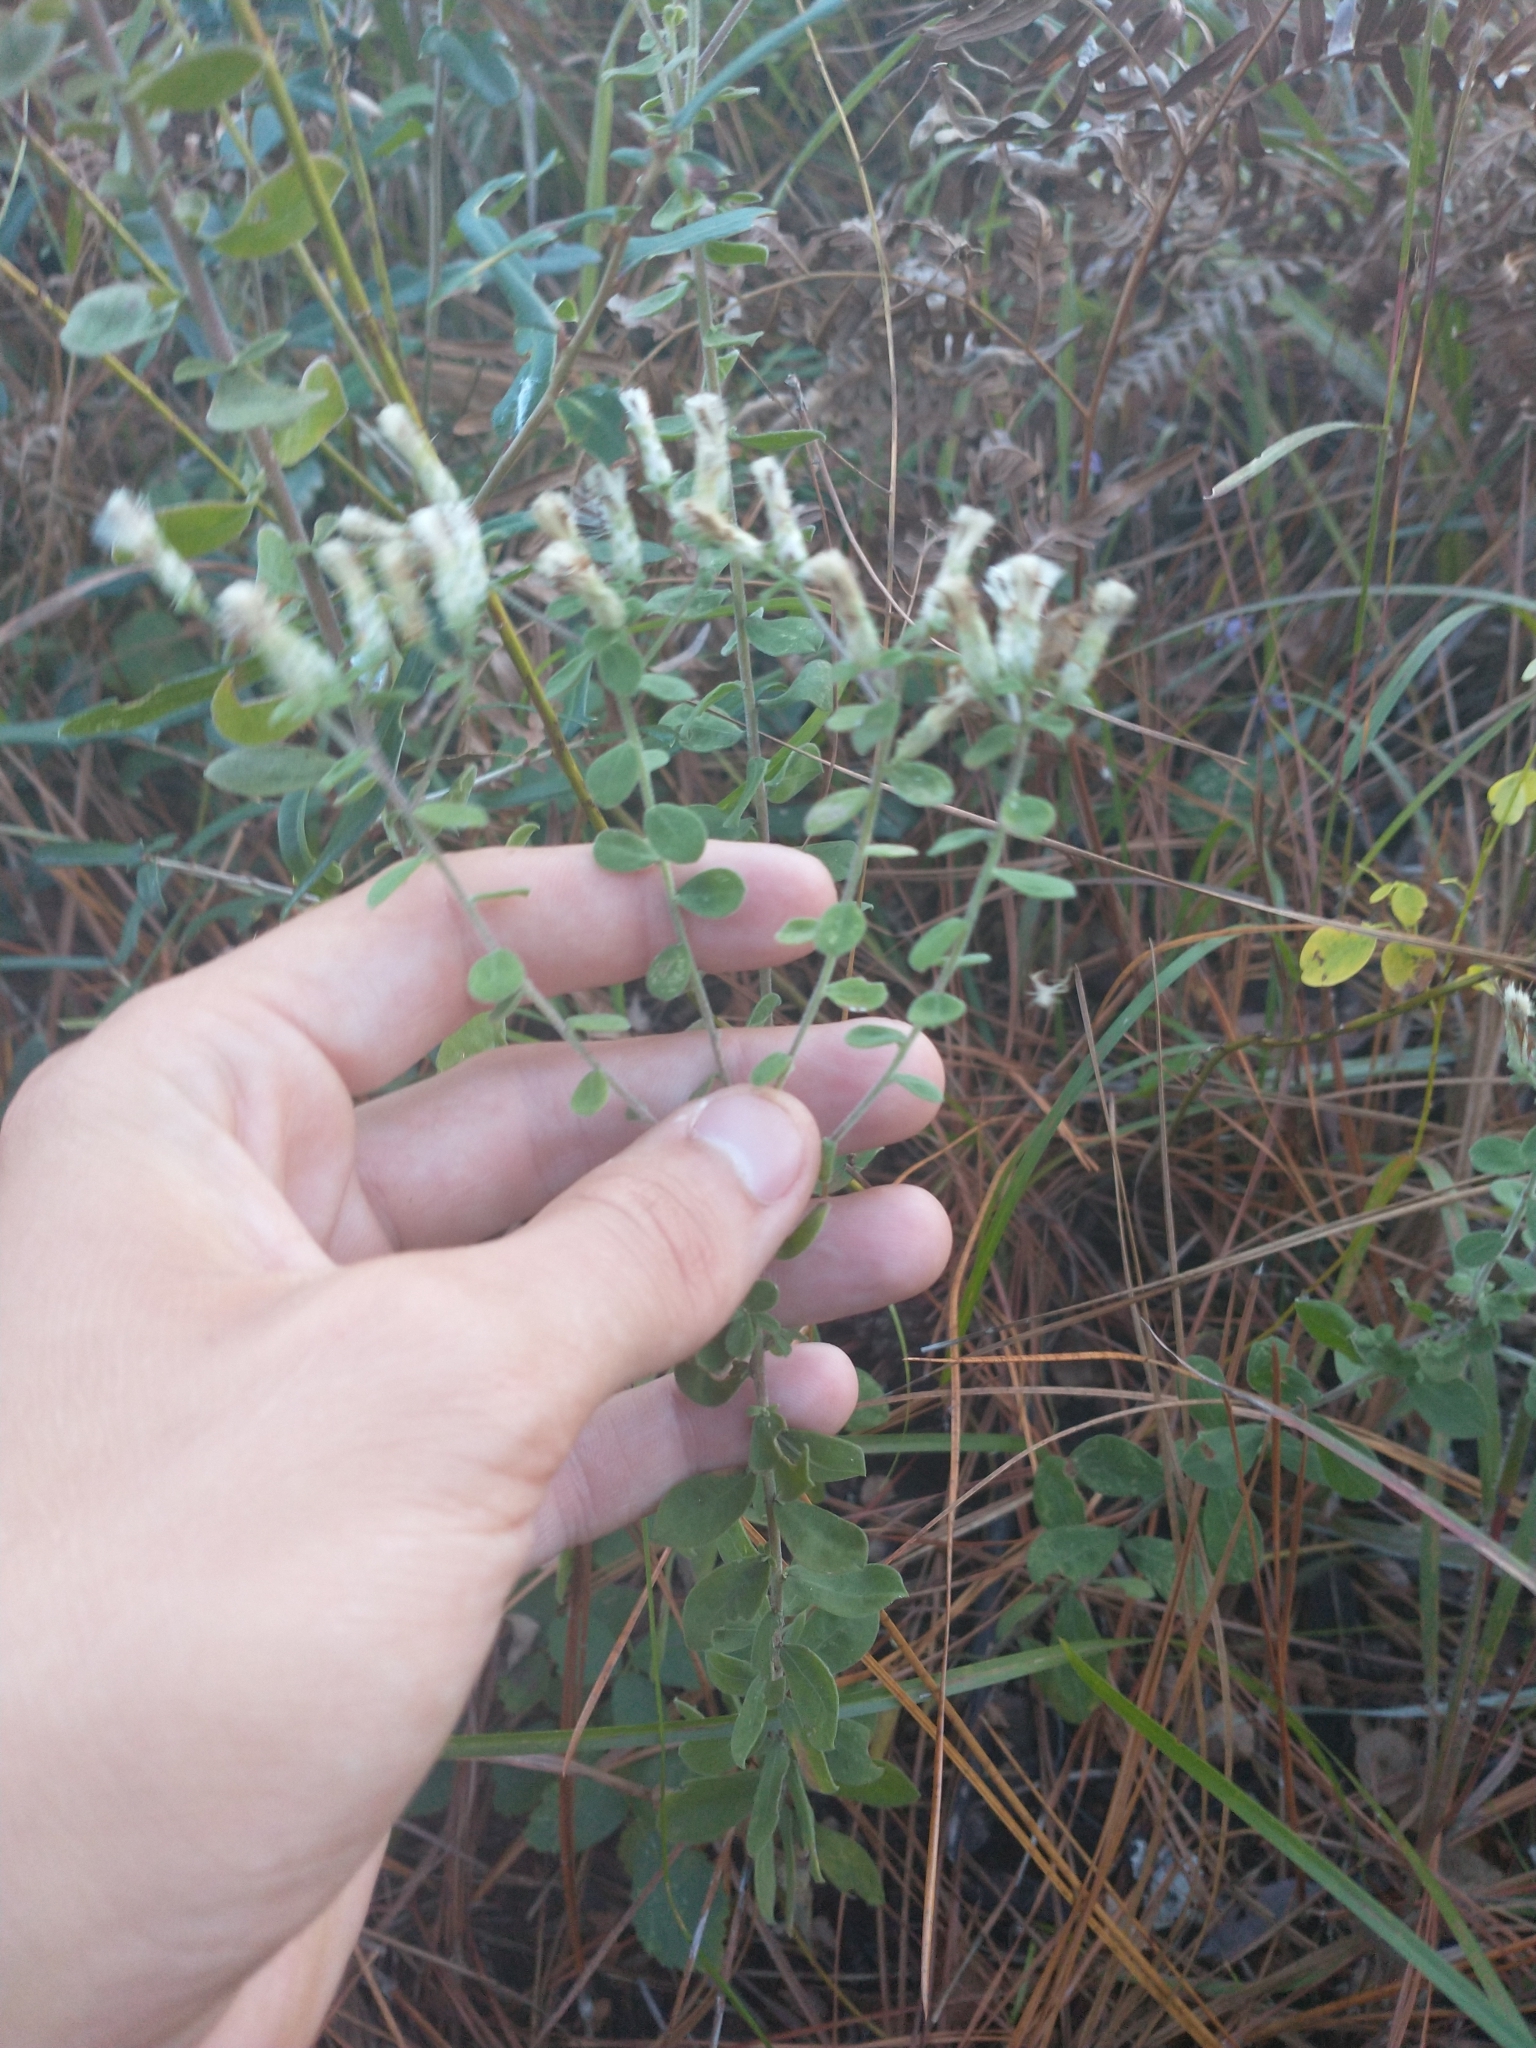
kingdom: Plantae
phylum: Tracheophyta
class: Magnoliopsida
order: Asterales
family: Asteraceae
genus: Sericocarpus
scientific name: Sericocarpus tortifolius
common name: Dixie aster
